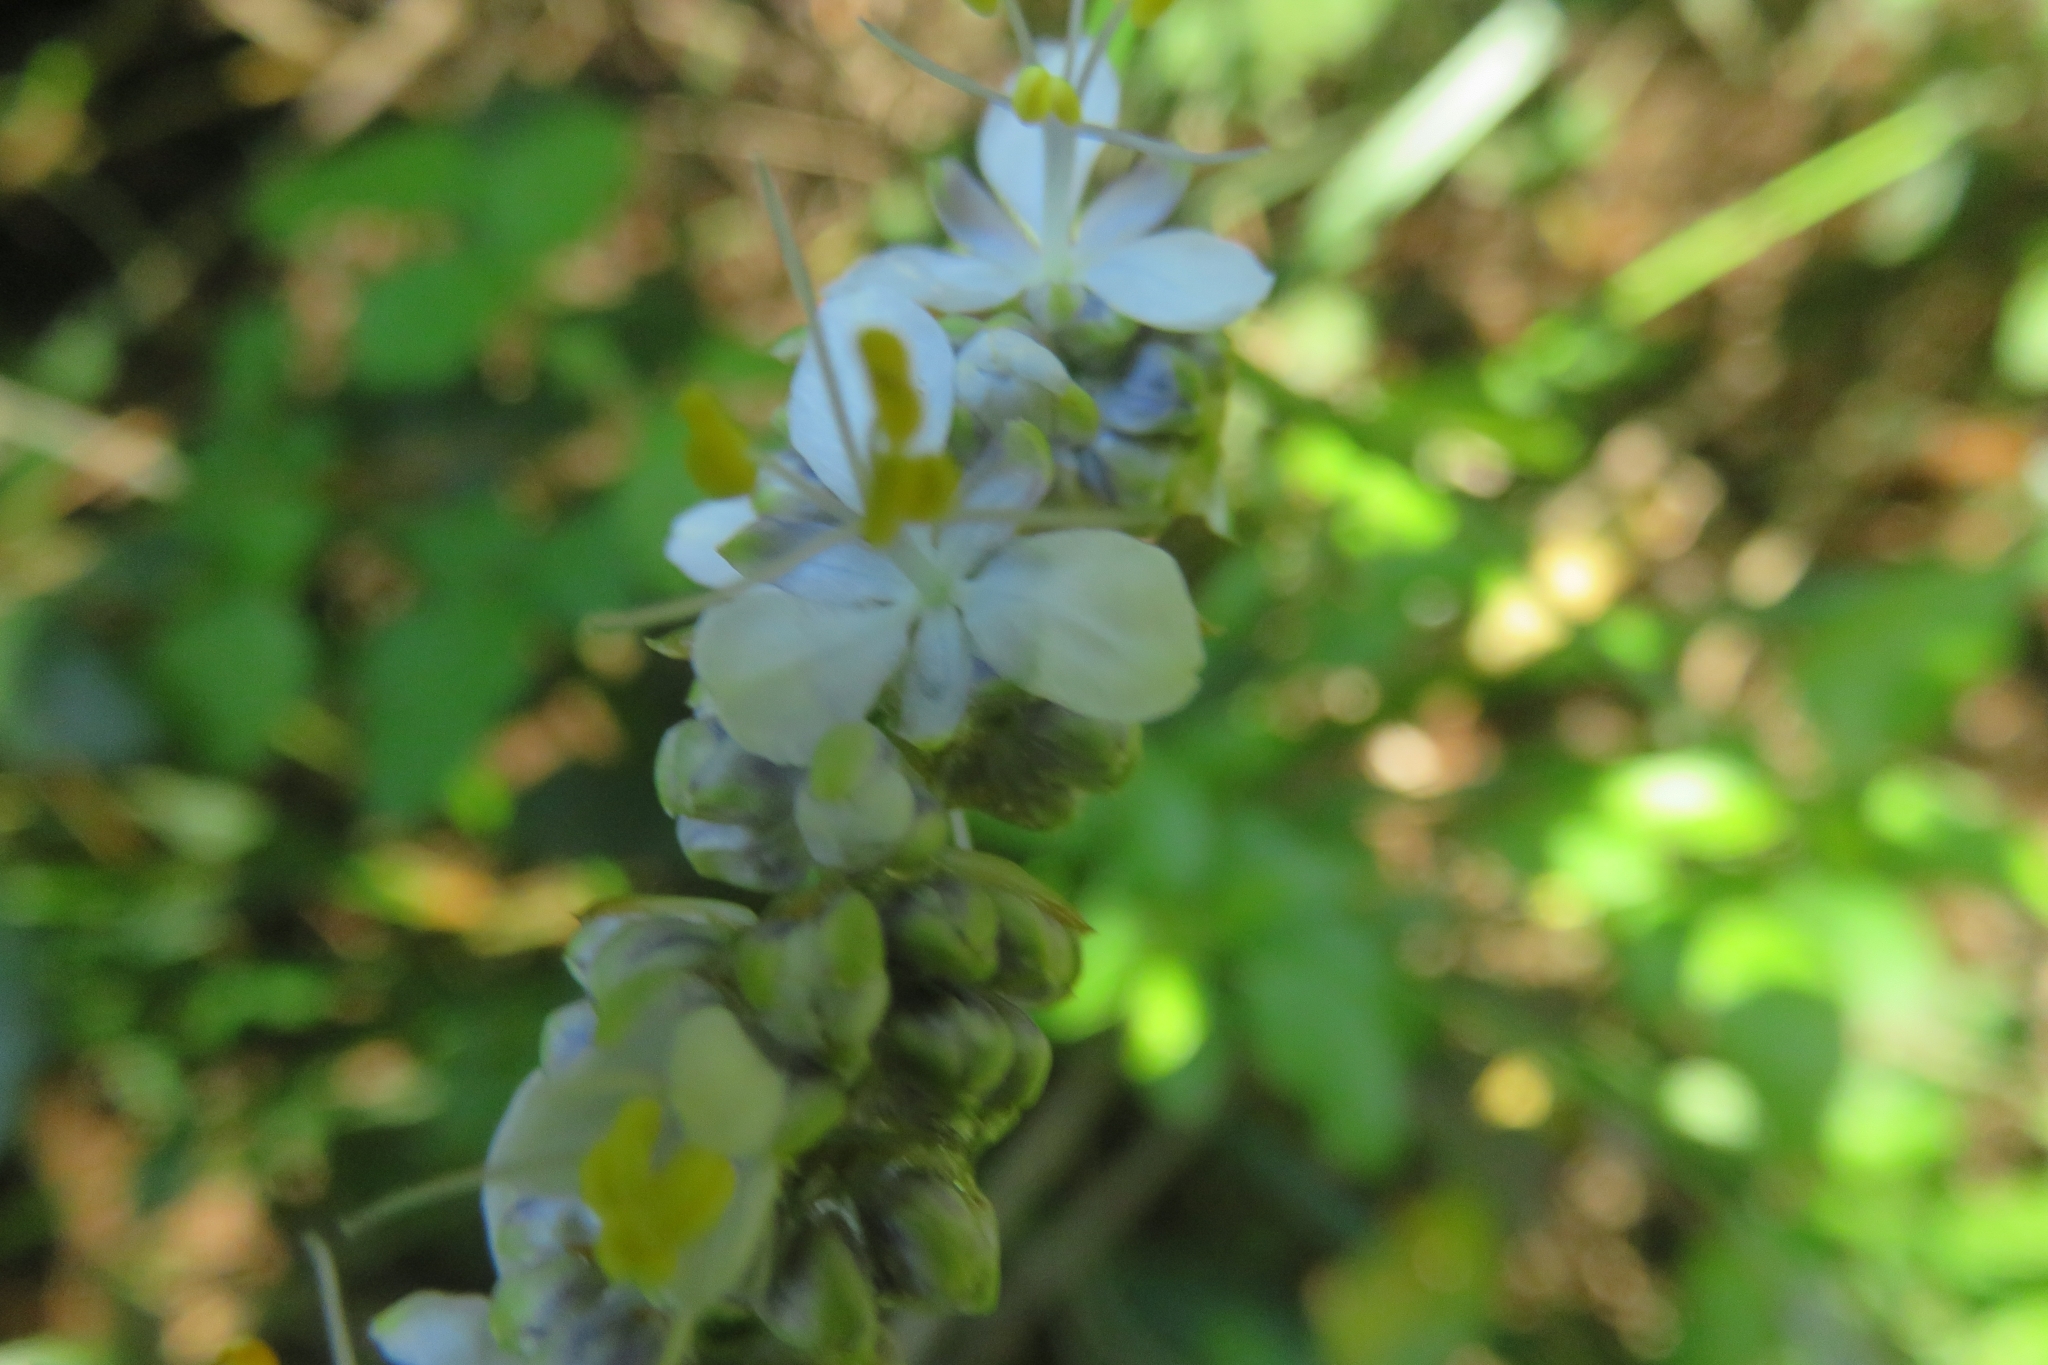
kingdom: Plantae
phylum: Tracheophyta
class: Liliopsida
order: Asparagales
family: Iridaceae
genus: Libertia
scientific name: Libertia sessiliflora
